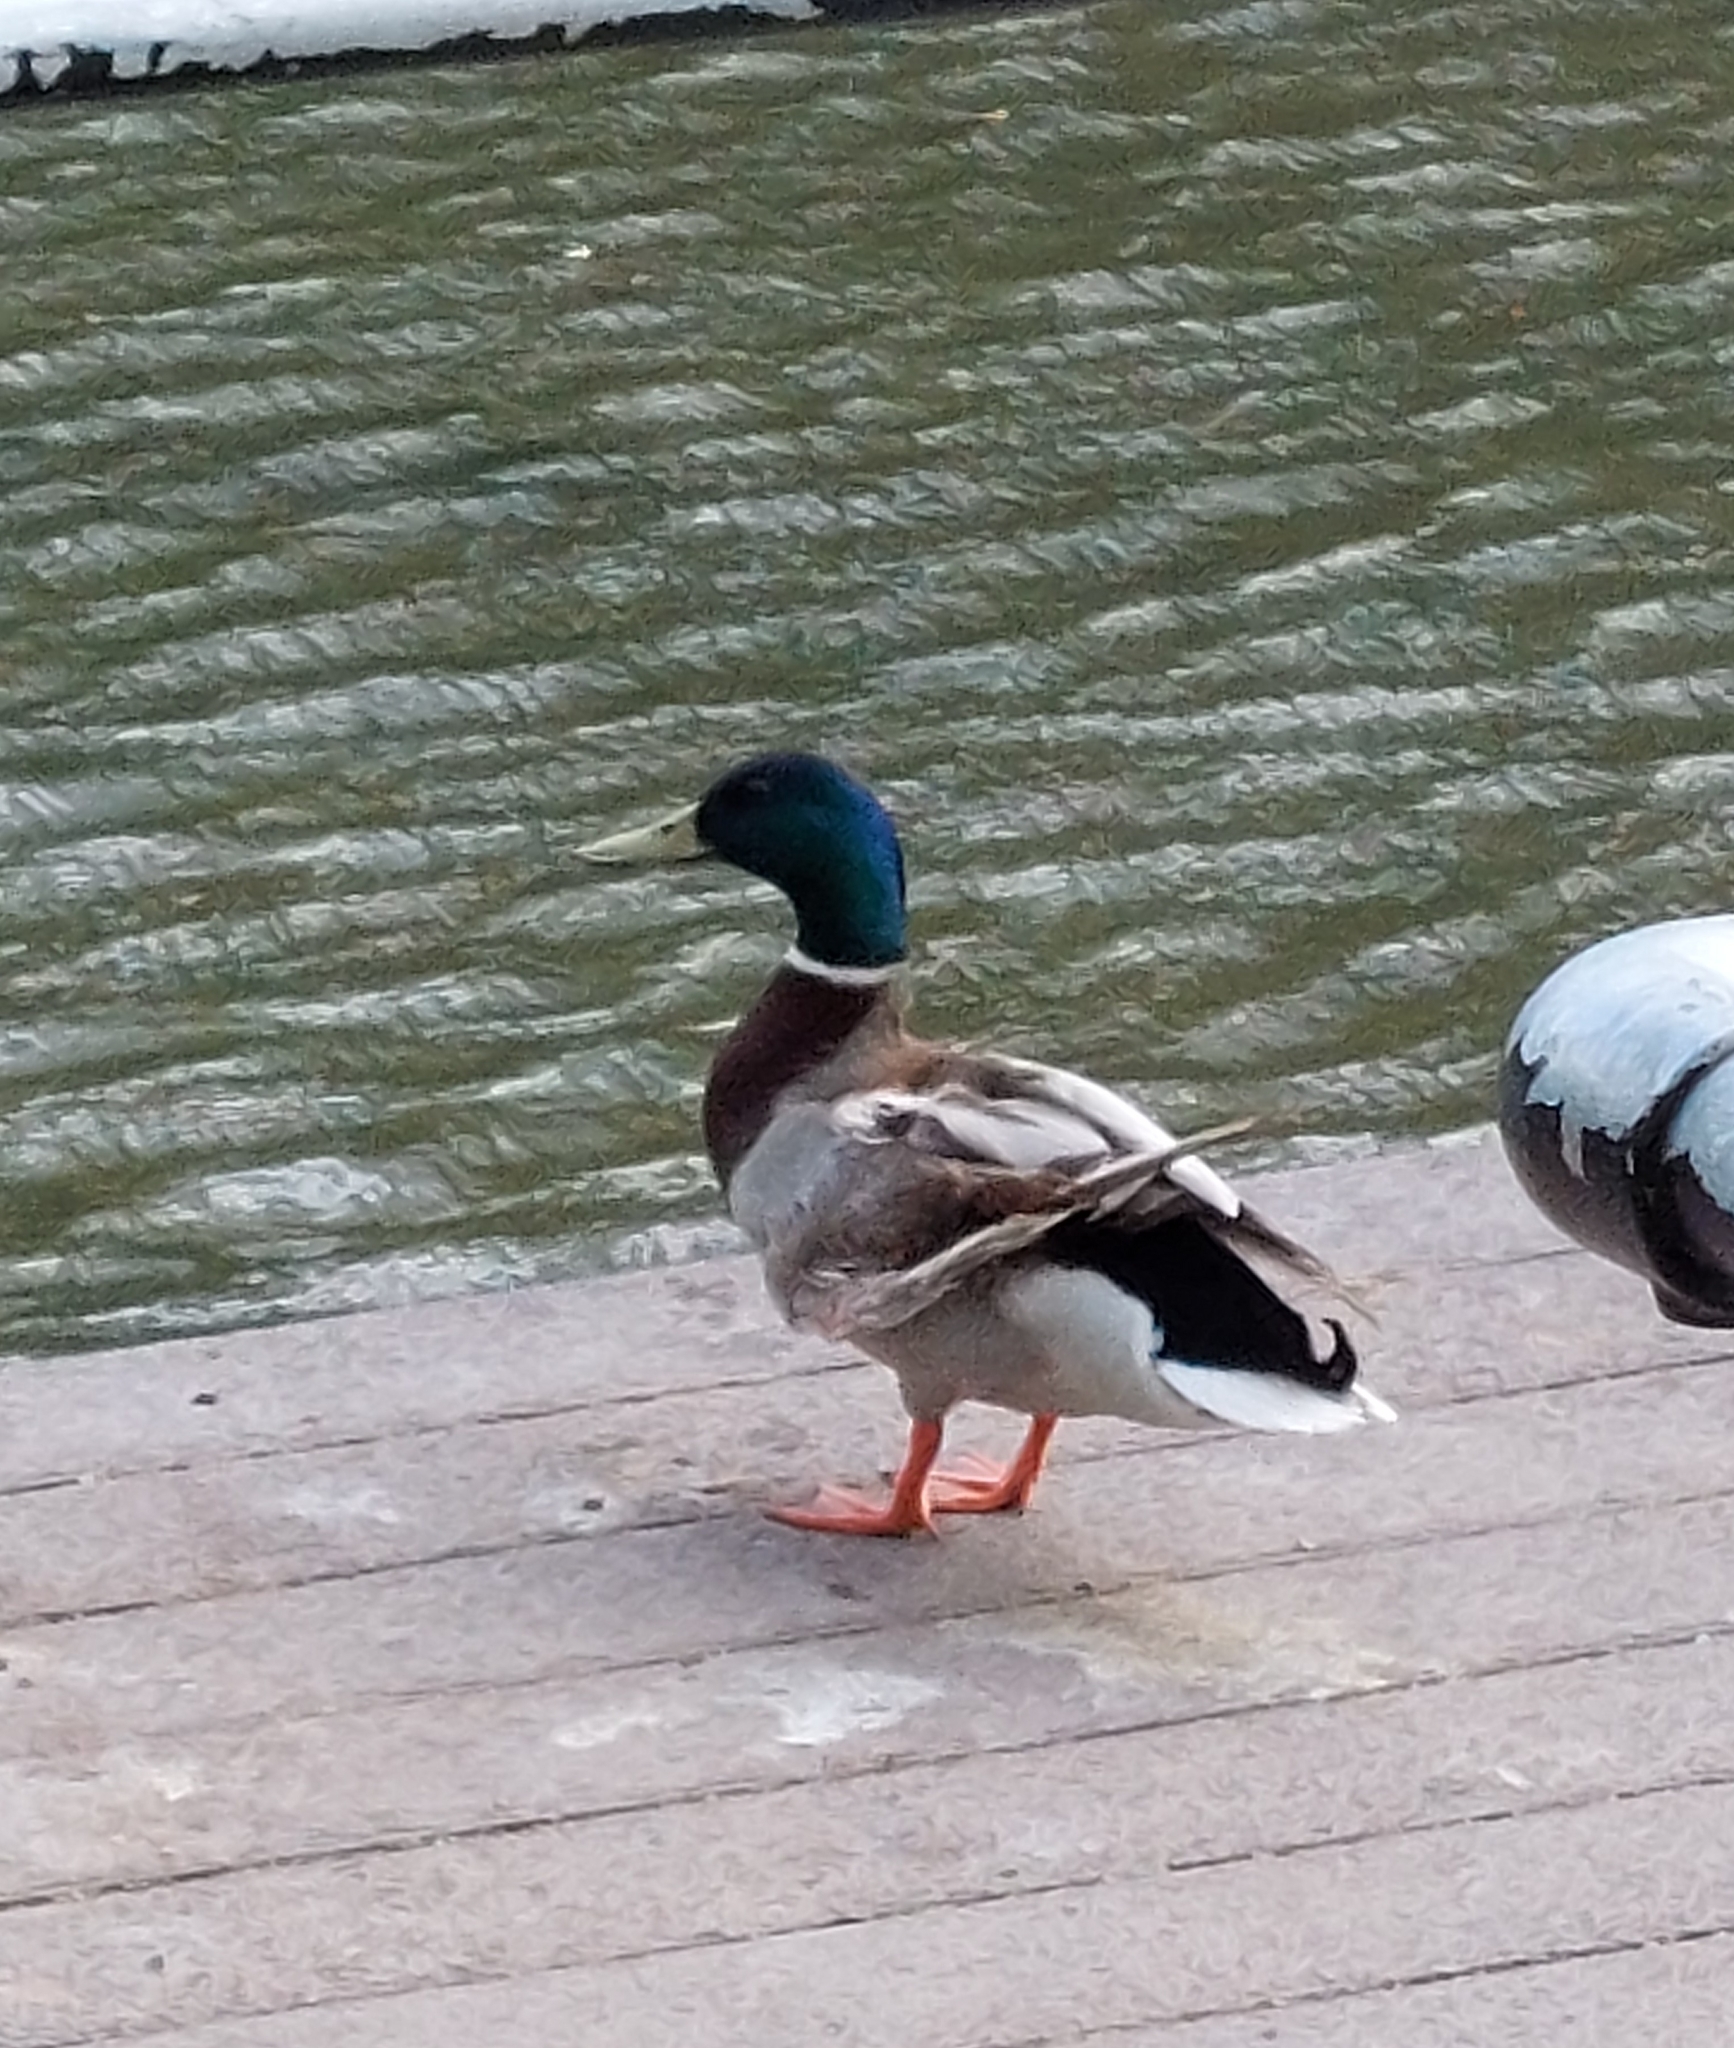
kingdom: Animalia
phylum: Chordata
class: Aves
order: Anseriformes
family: Anatidae
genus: Anas
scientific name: Anas platyrhynchos
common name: Mallard
